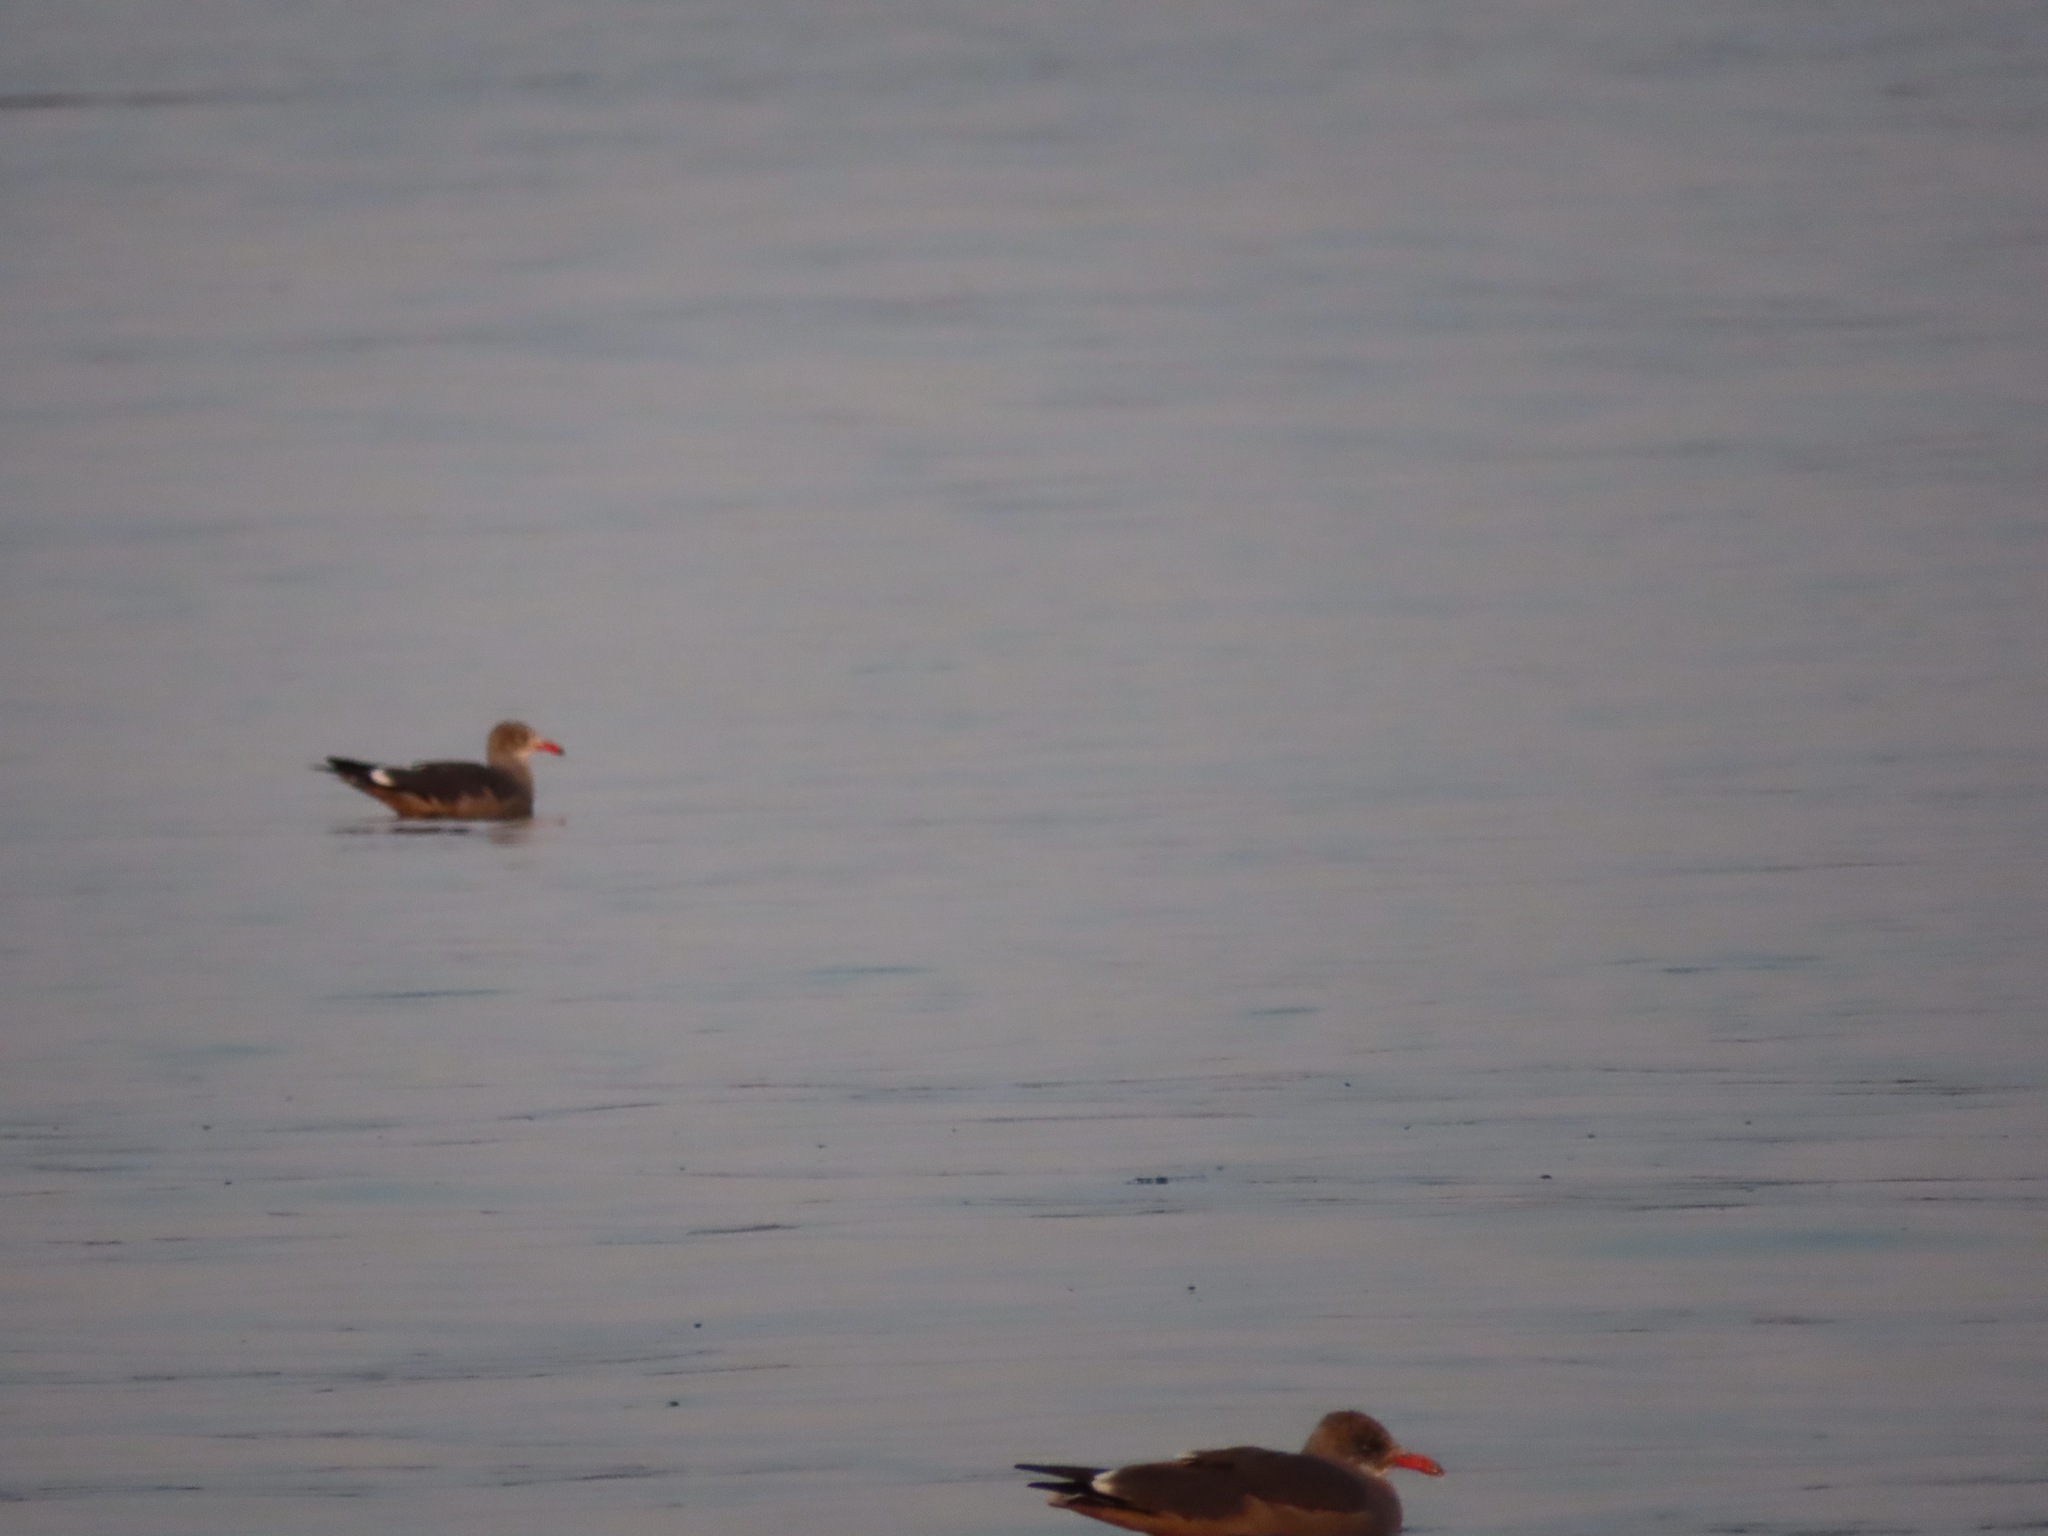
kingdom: Animalia
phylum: Chordata
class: Aves
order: Charadriiformes
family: Laridae
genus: Larus
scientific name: Larus heermanni
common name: Heermann's gull
